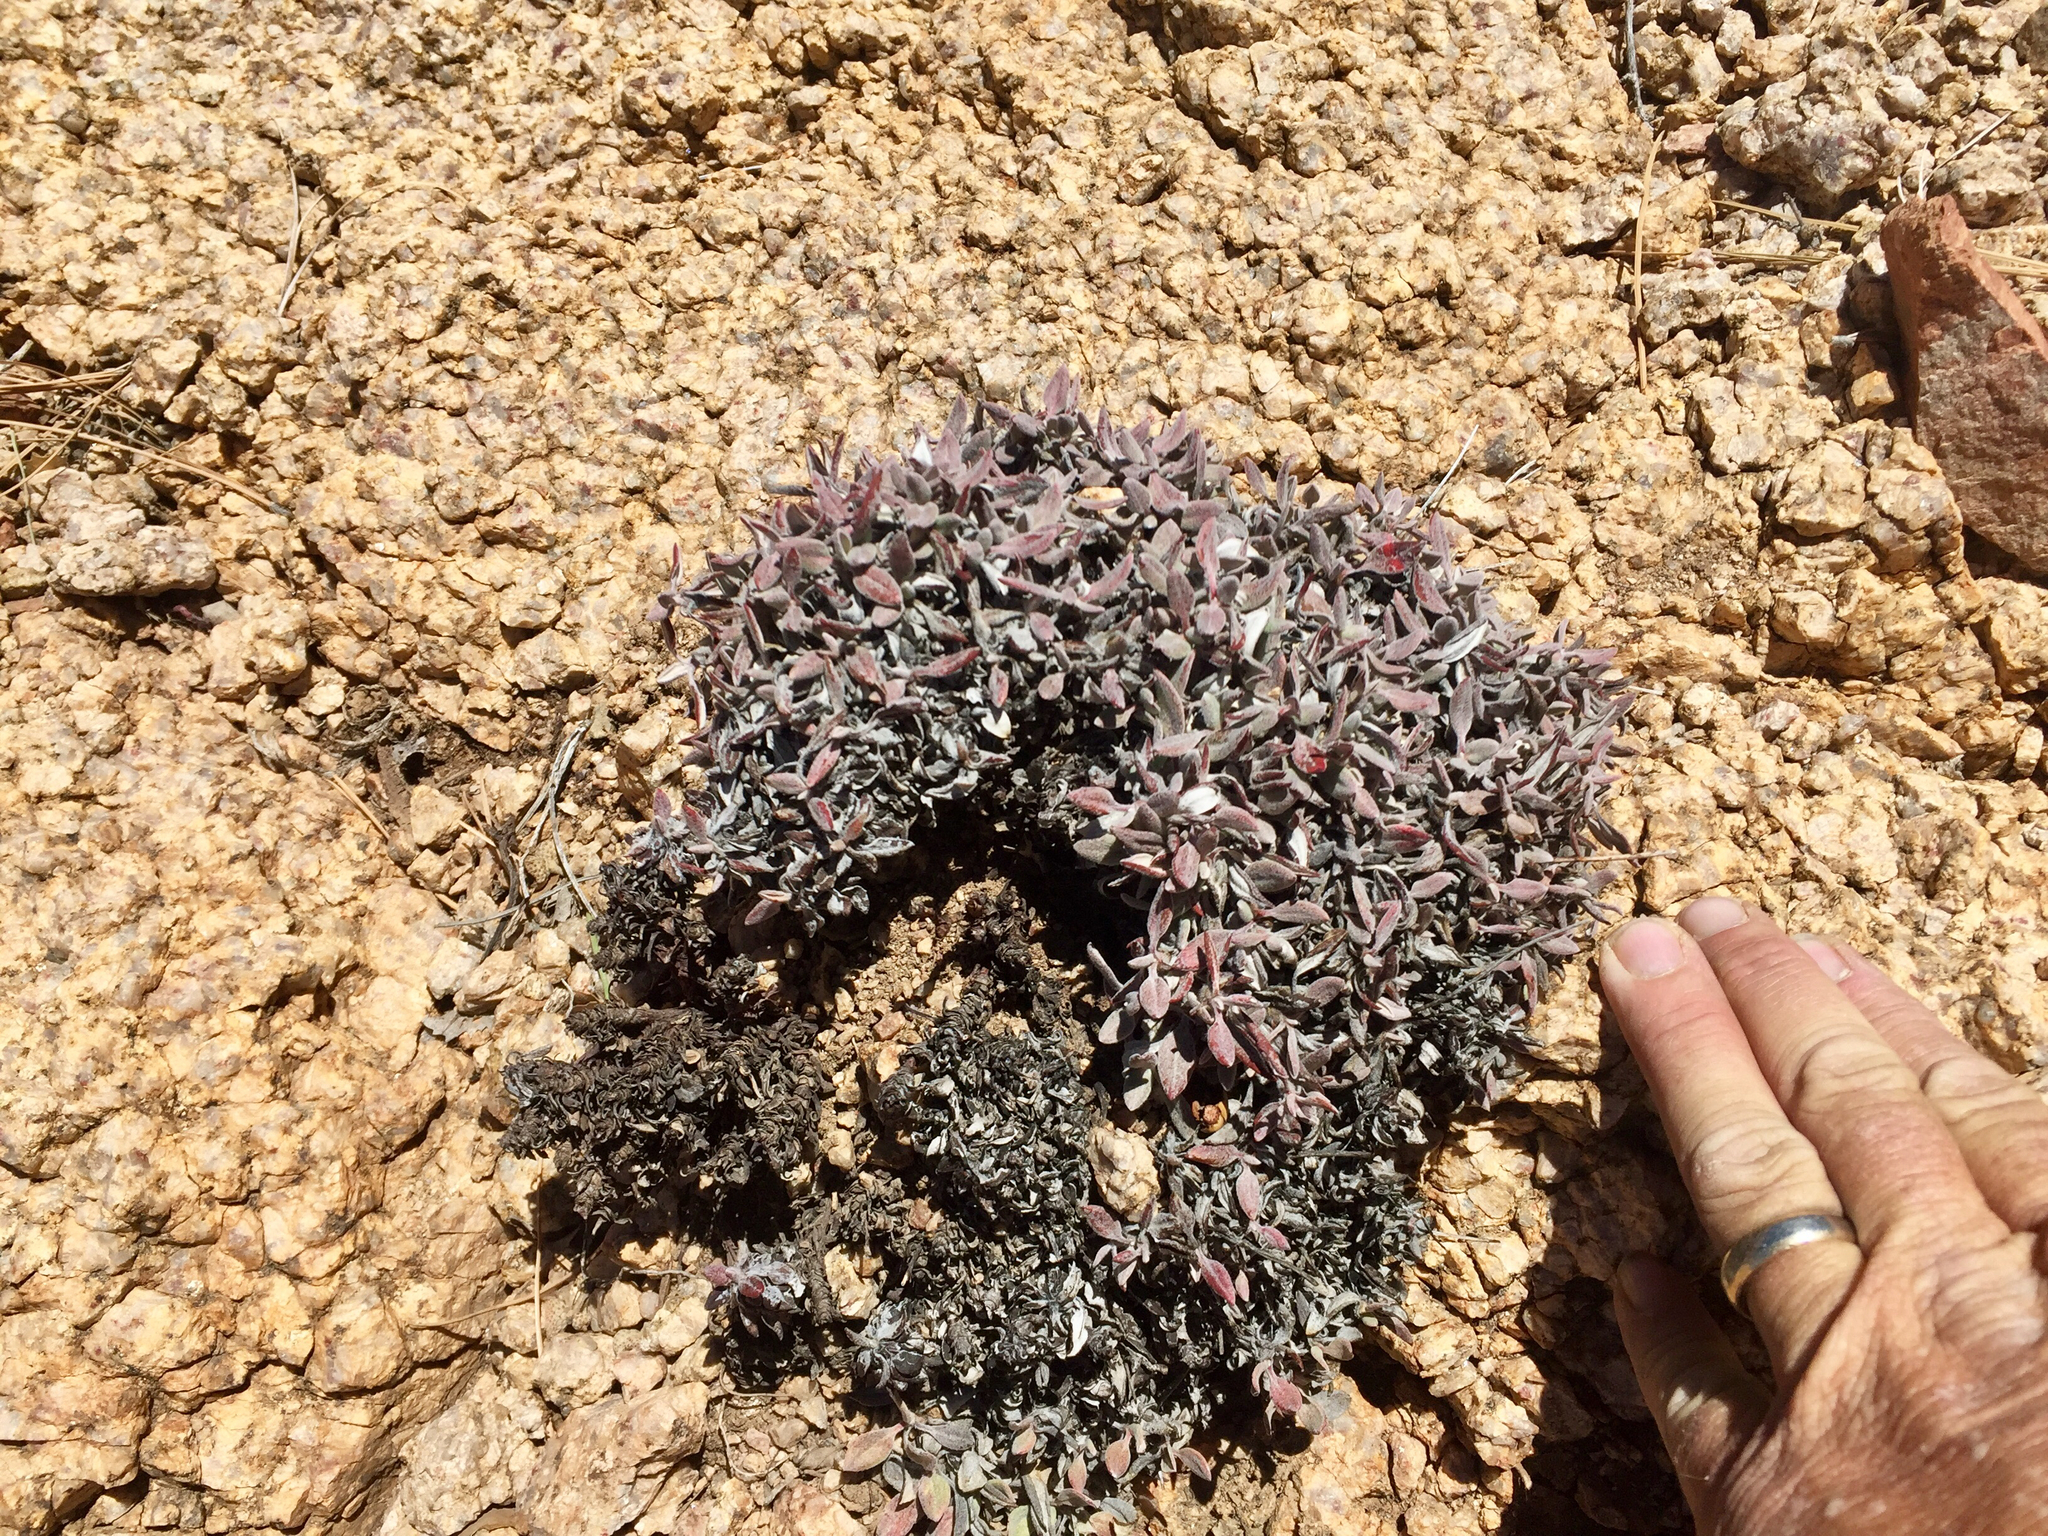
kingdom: Plantae
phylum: Tracheophyta
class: Magnoliopsida
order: Caryophyllales
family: Polygonaceae
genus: Eriogonum
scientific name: Eriogonum wrightii
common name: Bastard-sage
